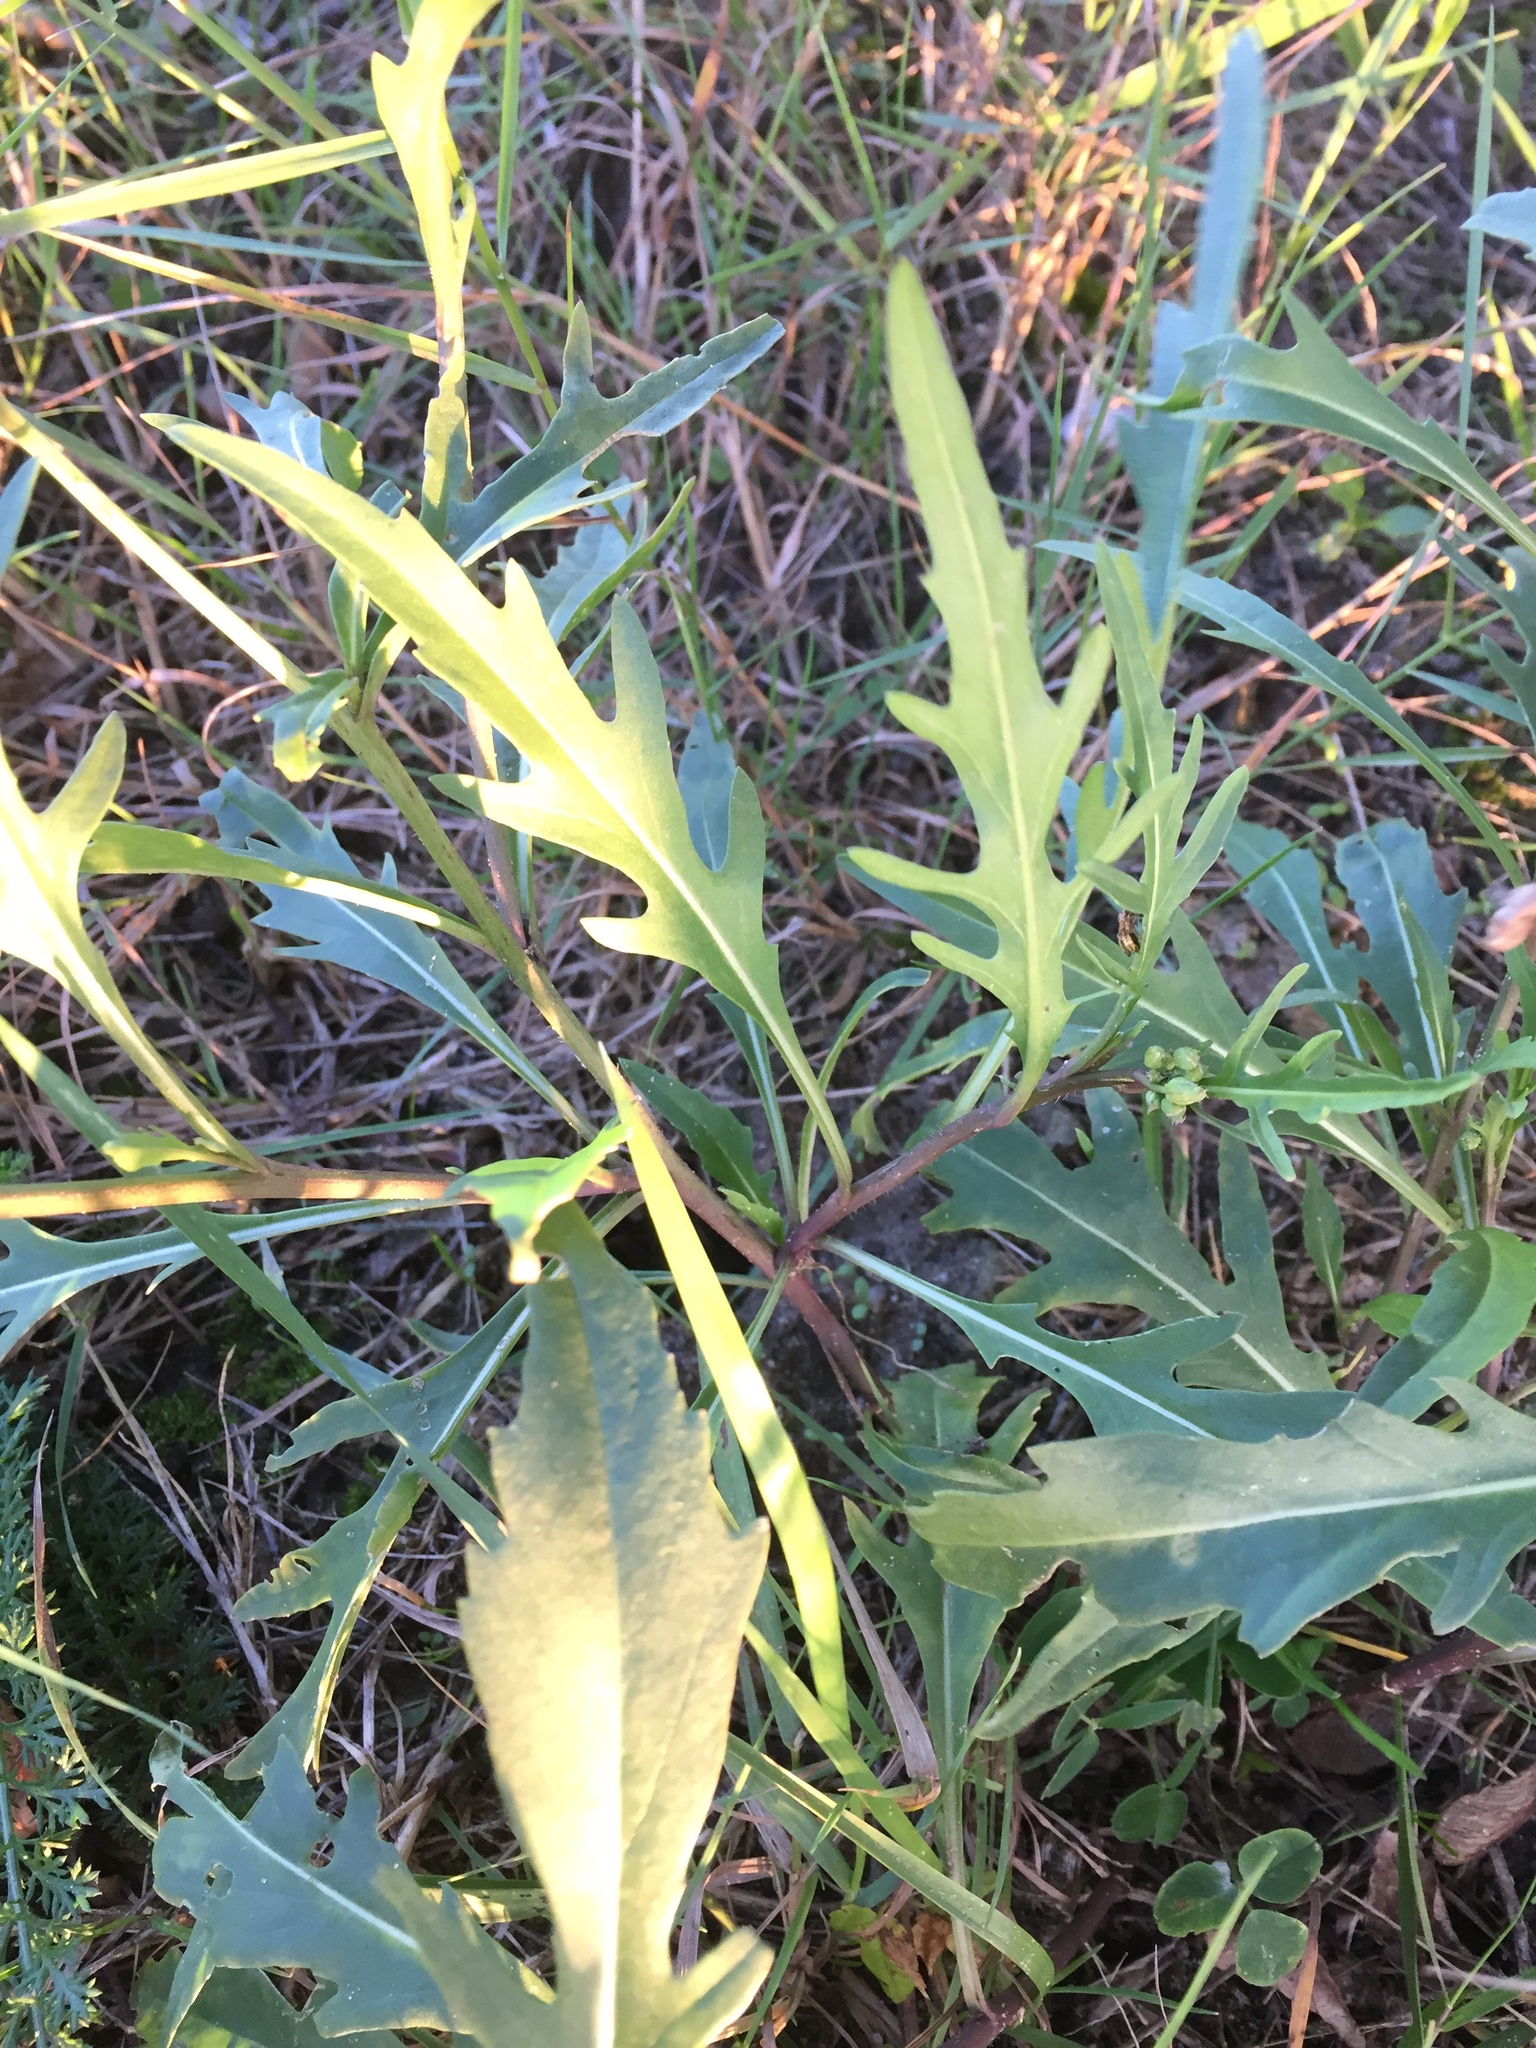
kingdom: Plantae
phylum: Tracheophyta
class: Magnoliopsida
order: Brassicales
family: Brassicaceae
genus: Diplotaxis
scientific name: Diplotaxis tenuifolia
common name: Perennial wall-rocket
